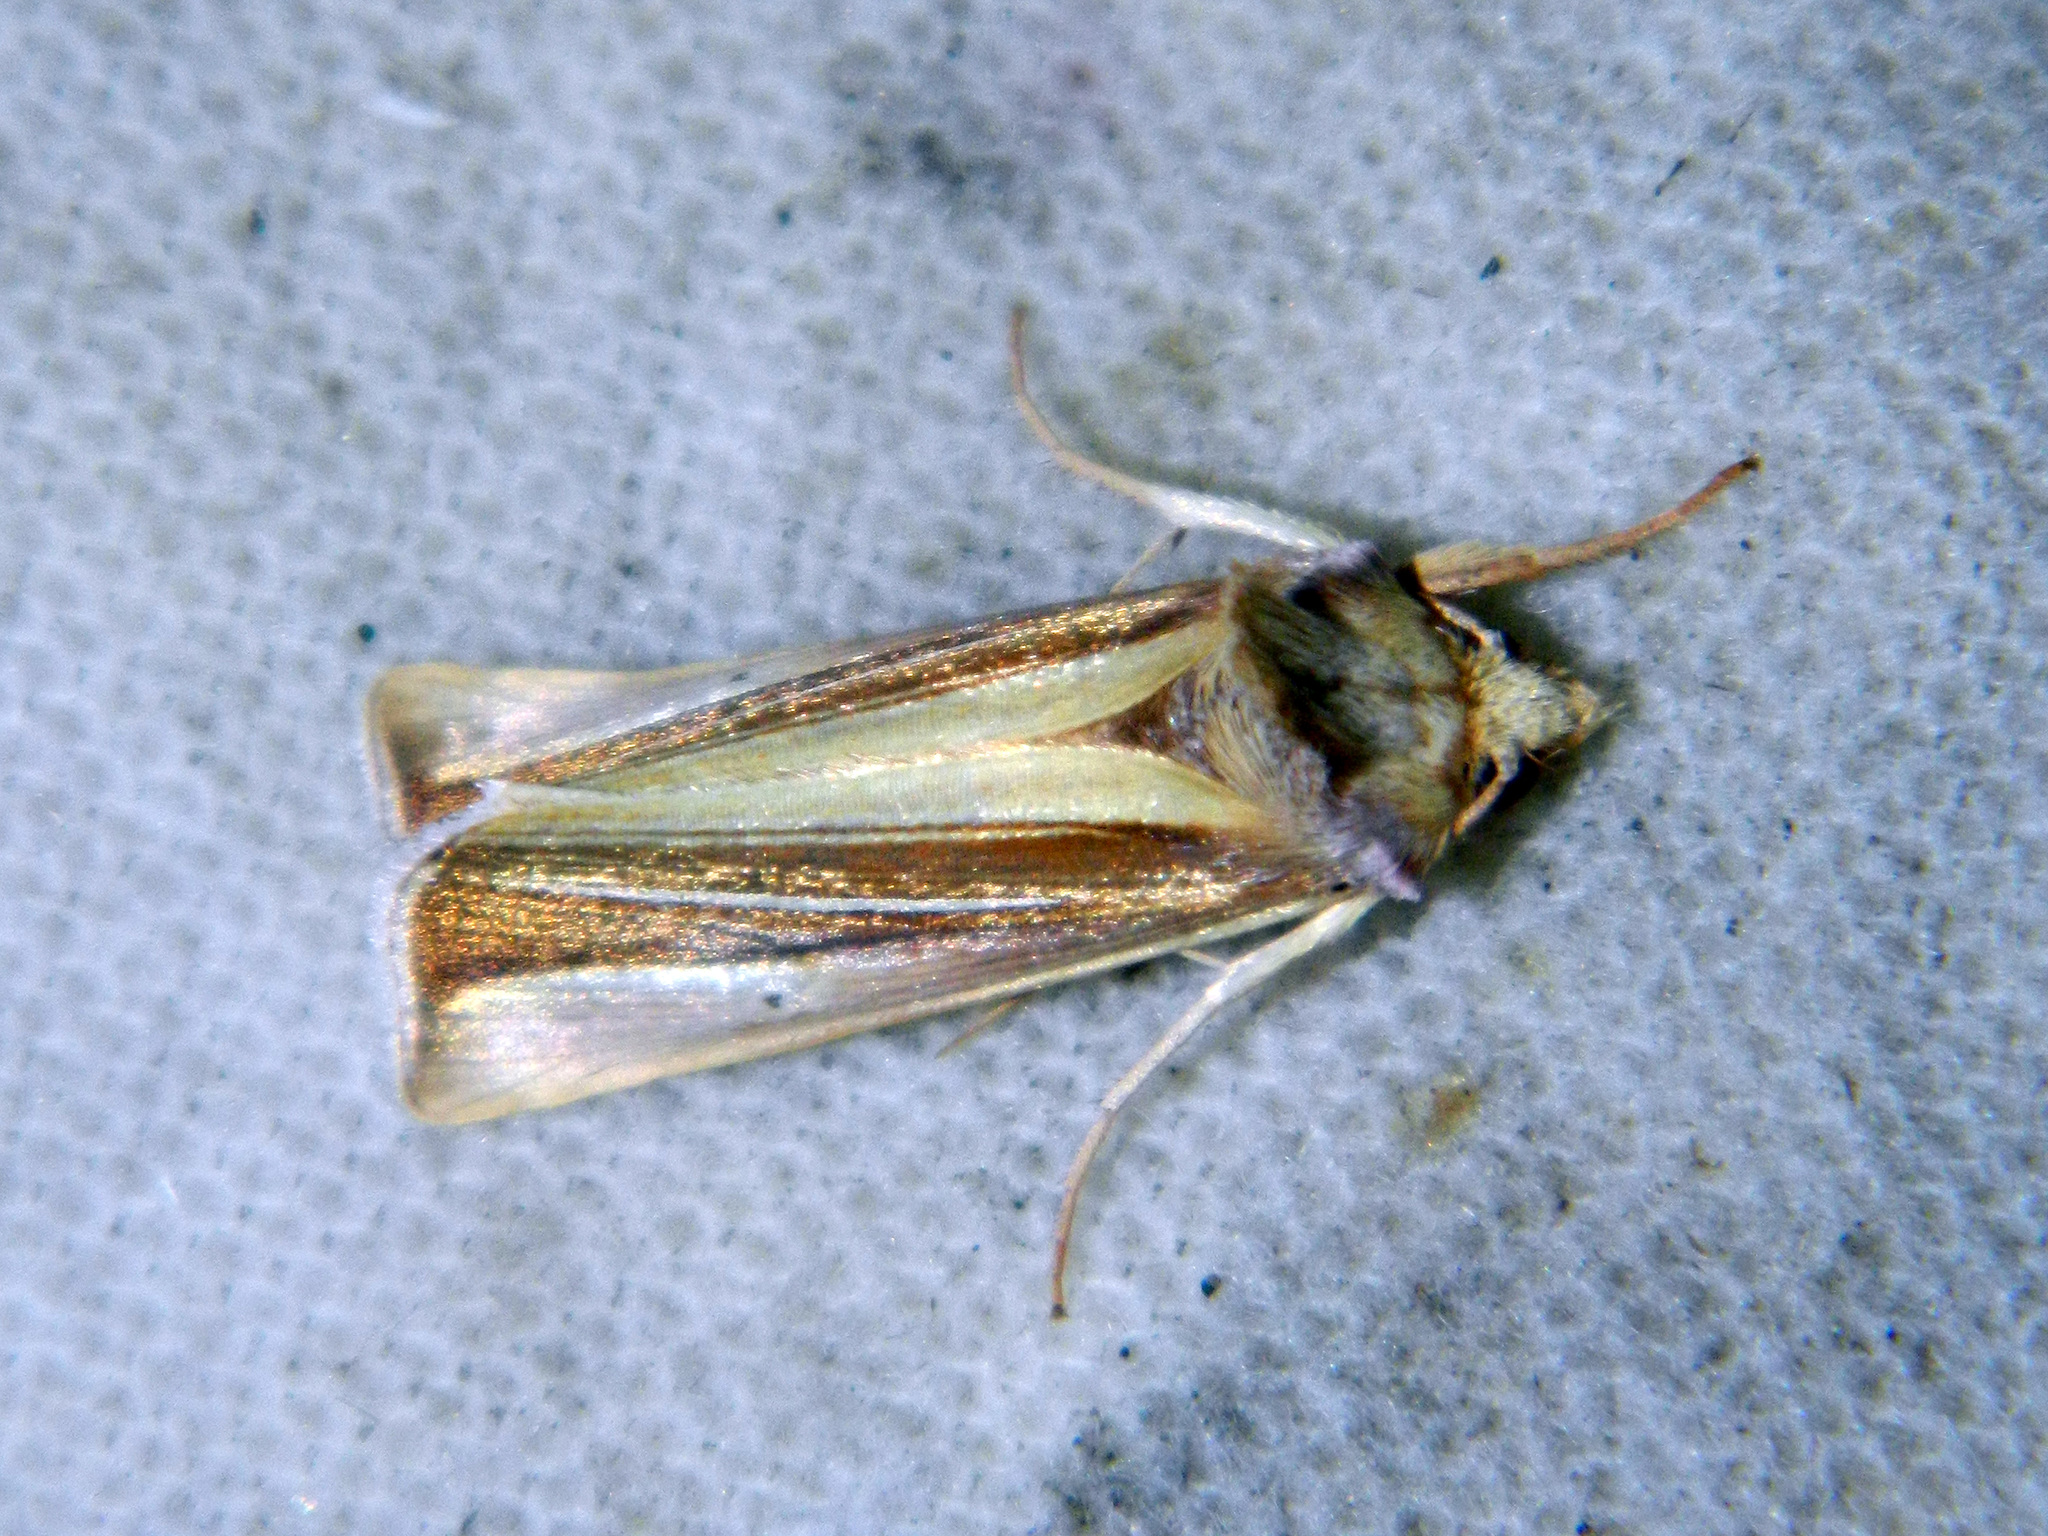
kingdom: Animalia
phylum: Arthropoda
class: Insecta
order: Lepidoptera
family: Noctuidae
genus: Plusia
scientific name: Plusia venusta
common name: White-streaked looper moth
